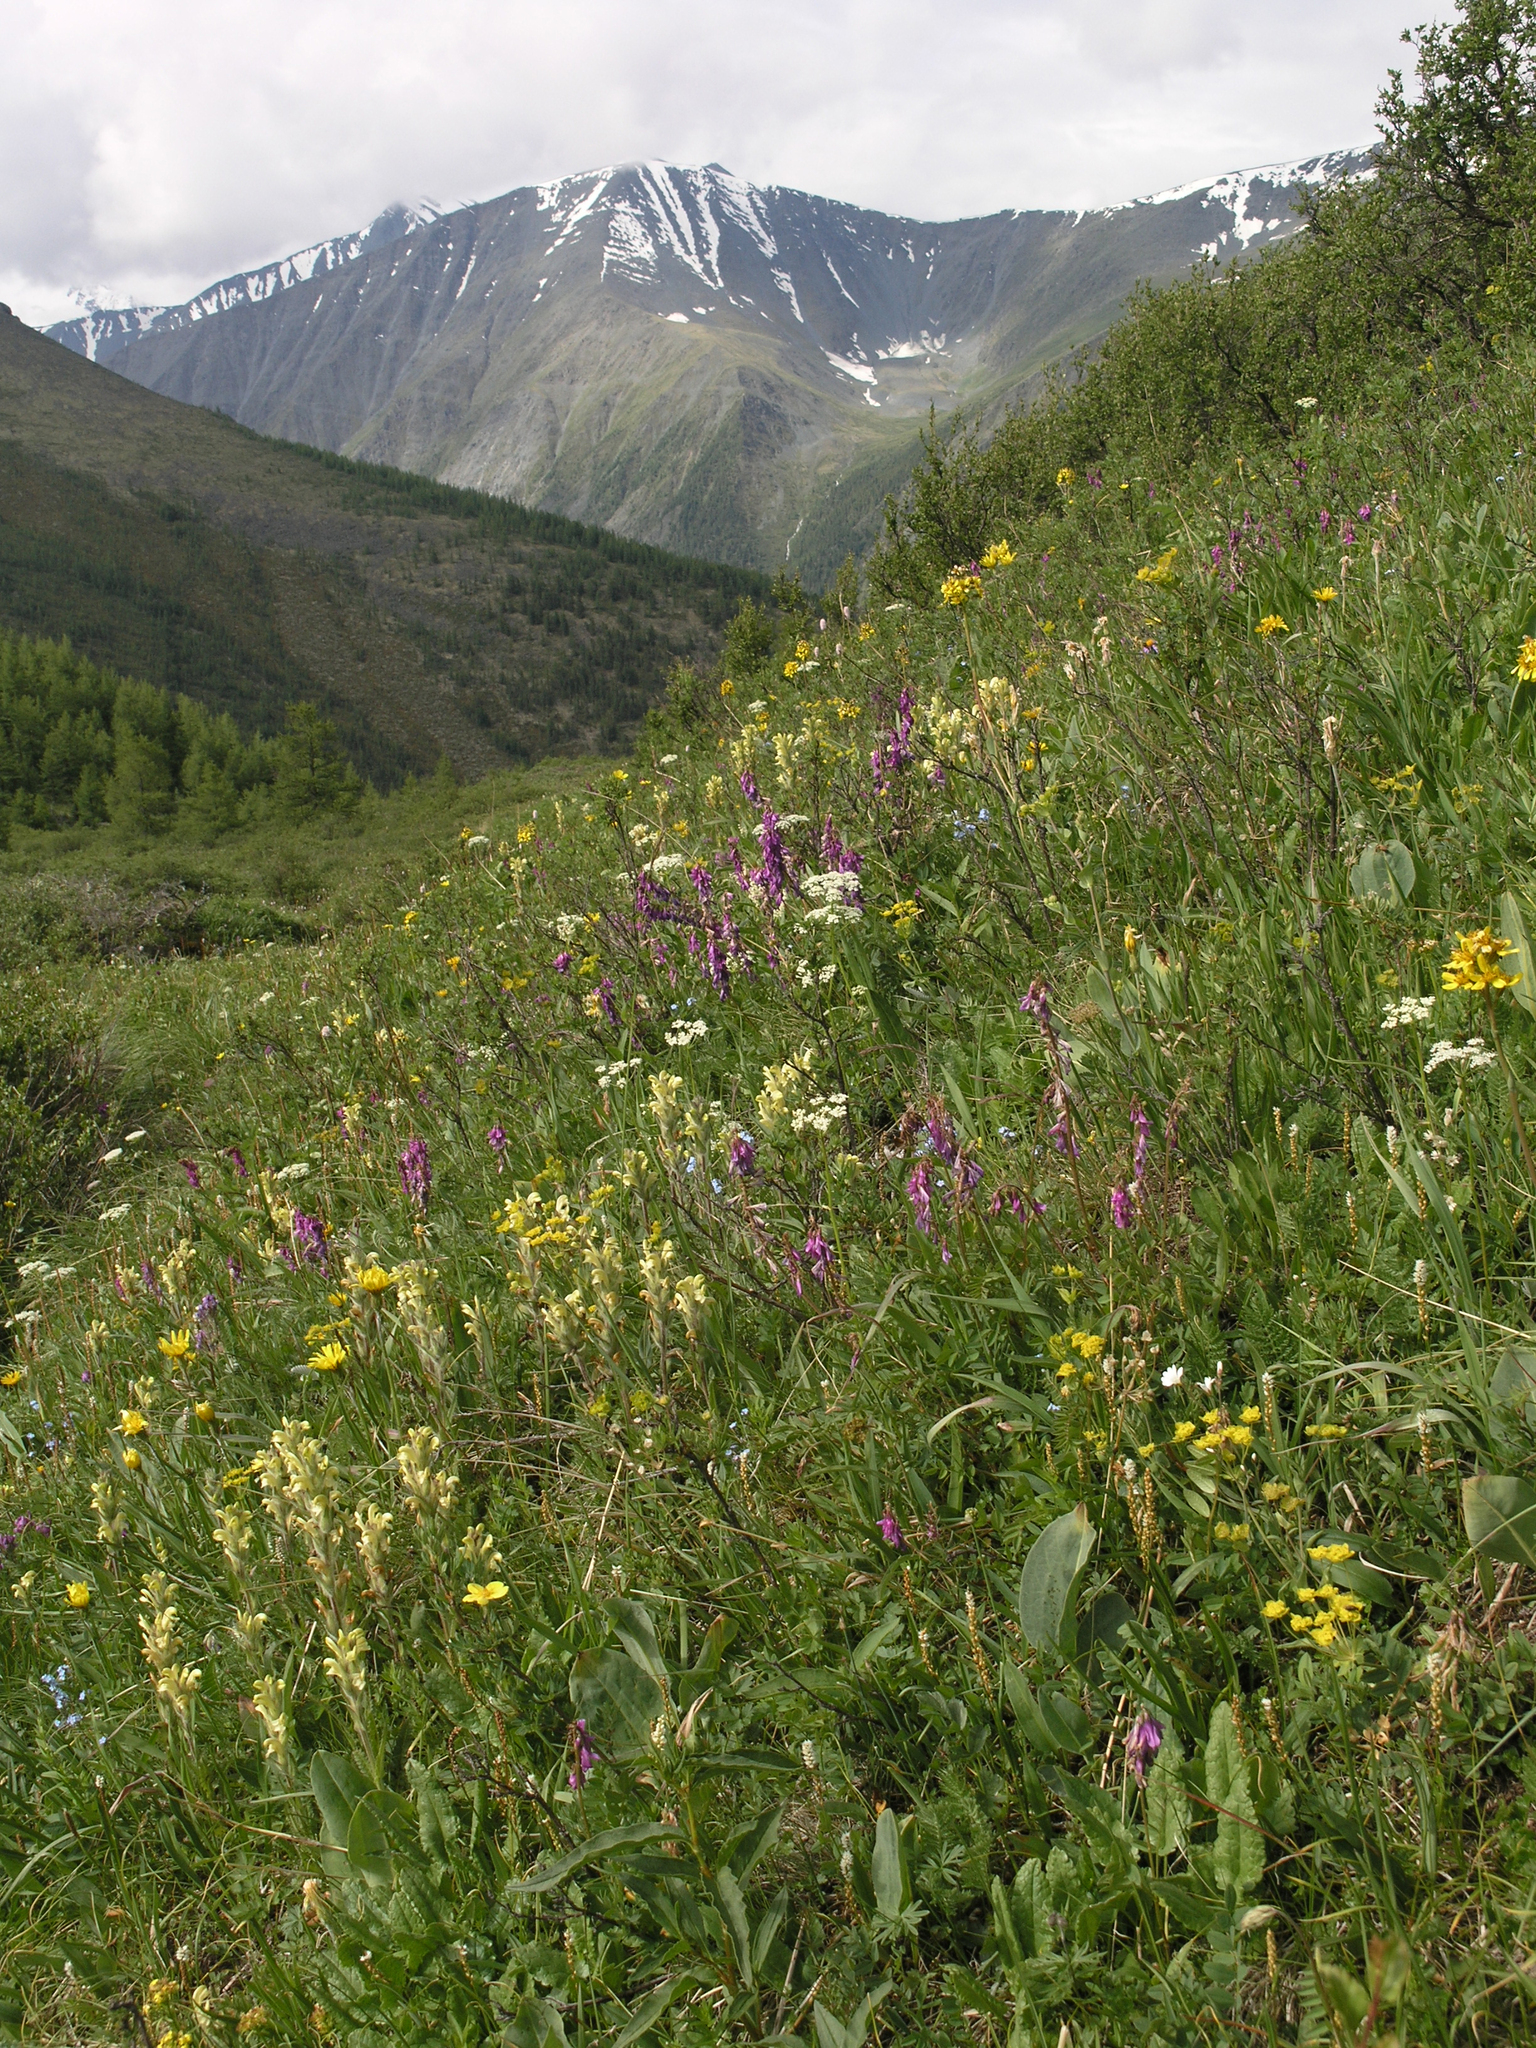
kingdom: Plantae
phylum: Tracheophyta
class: Magnoliopsida
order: Lamiales
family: Orobanchaceae
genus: Pedicularis
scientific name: Pedicularis tristis
